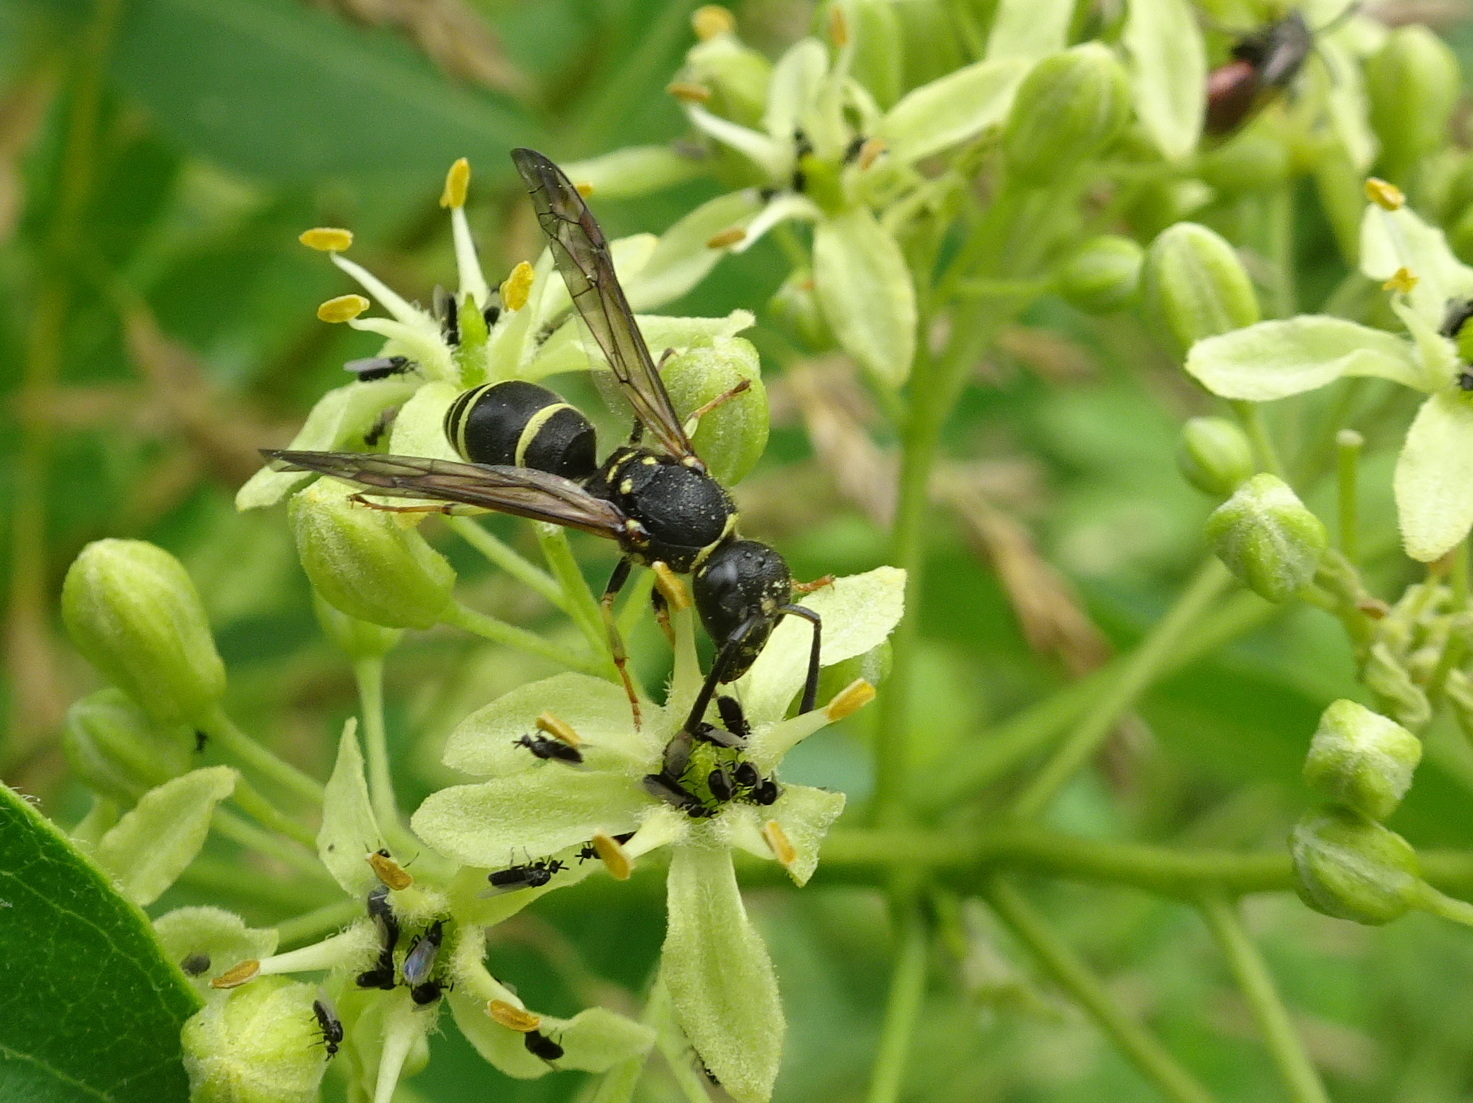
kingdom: Animalia
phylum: Arthropoda
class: Insecta
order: Hymenoptera
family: Vespidae
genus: Ancistrocerus
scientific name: Ancistrocerus adiabatus
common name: Bramble mason wasp
